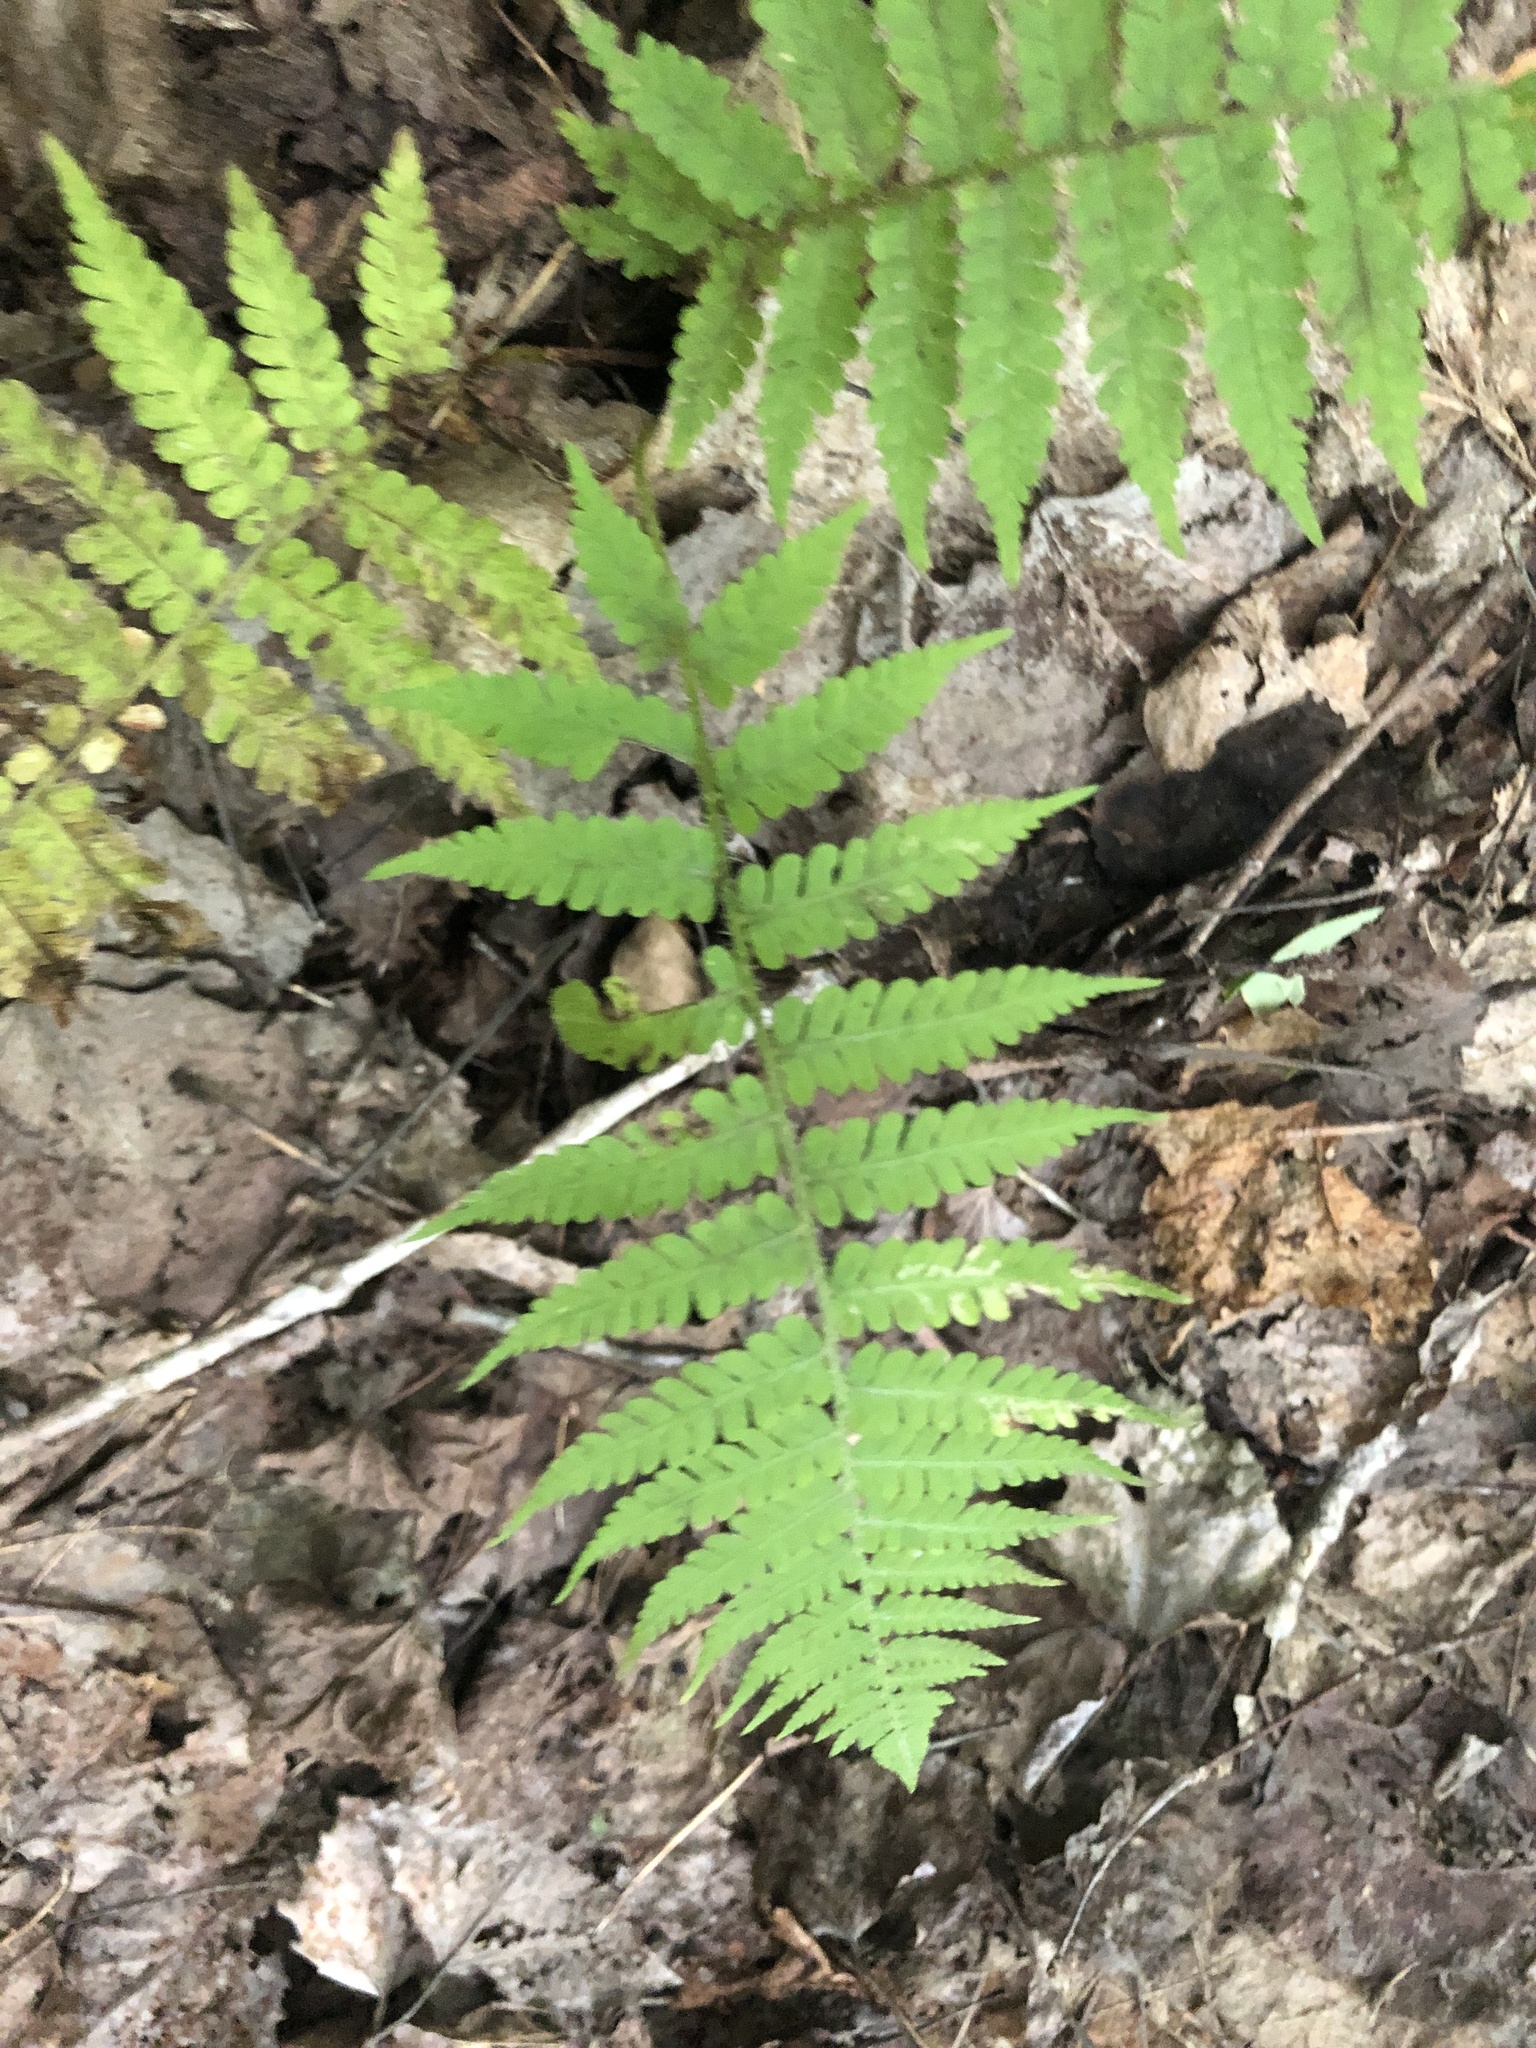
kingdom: Plantae
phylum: Tracheophyta
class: Polypodiopsida
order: Polypodiales
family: Athyriaceae
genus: Deparia
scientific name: Deparia acrostichoides
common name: Silver false spleenwort
